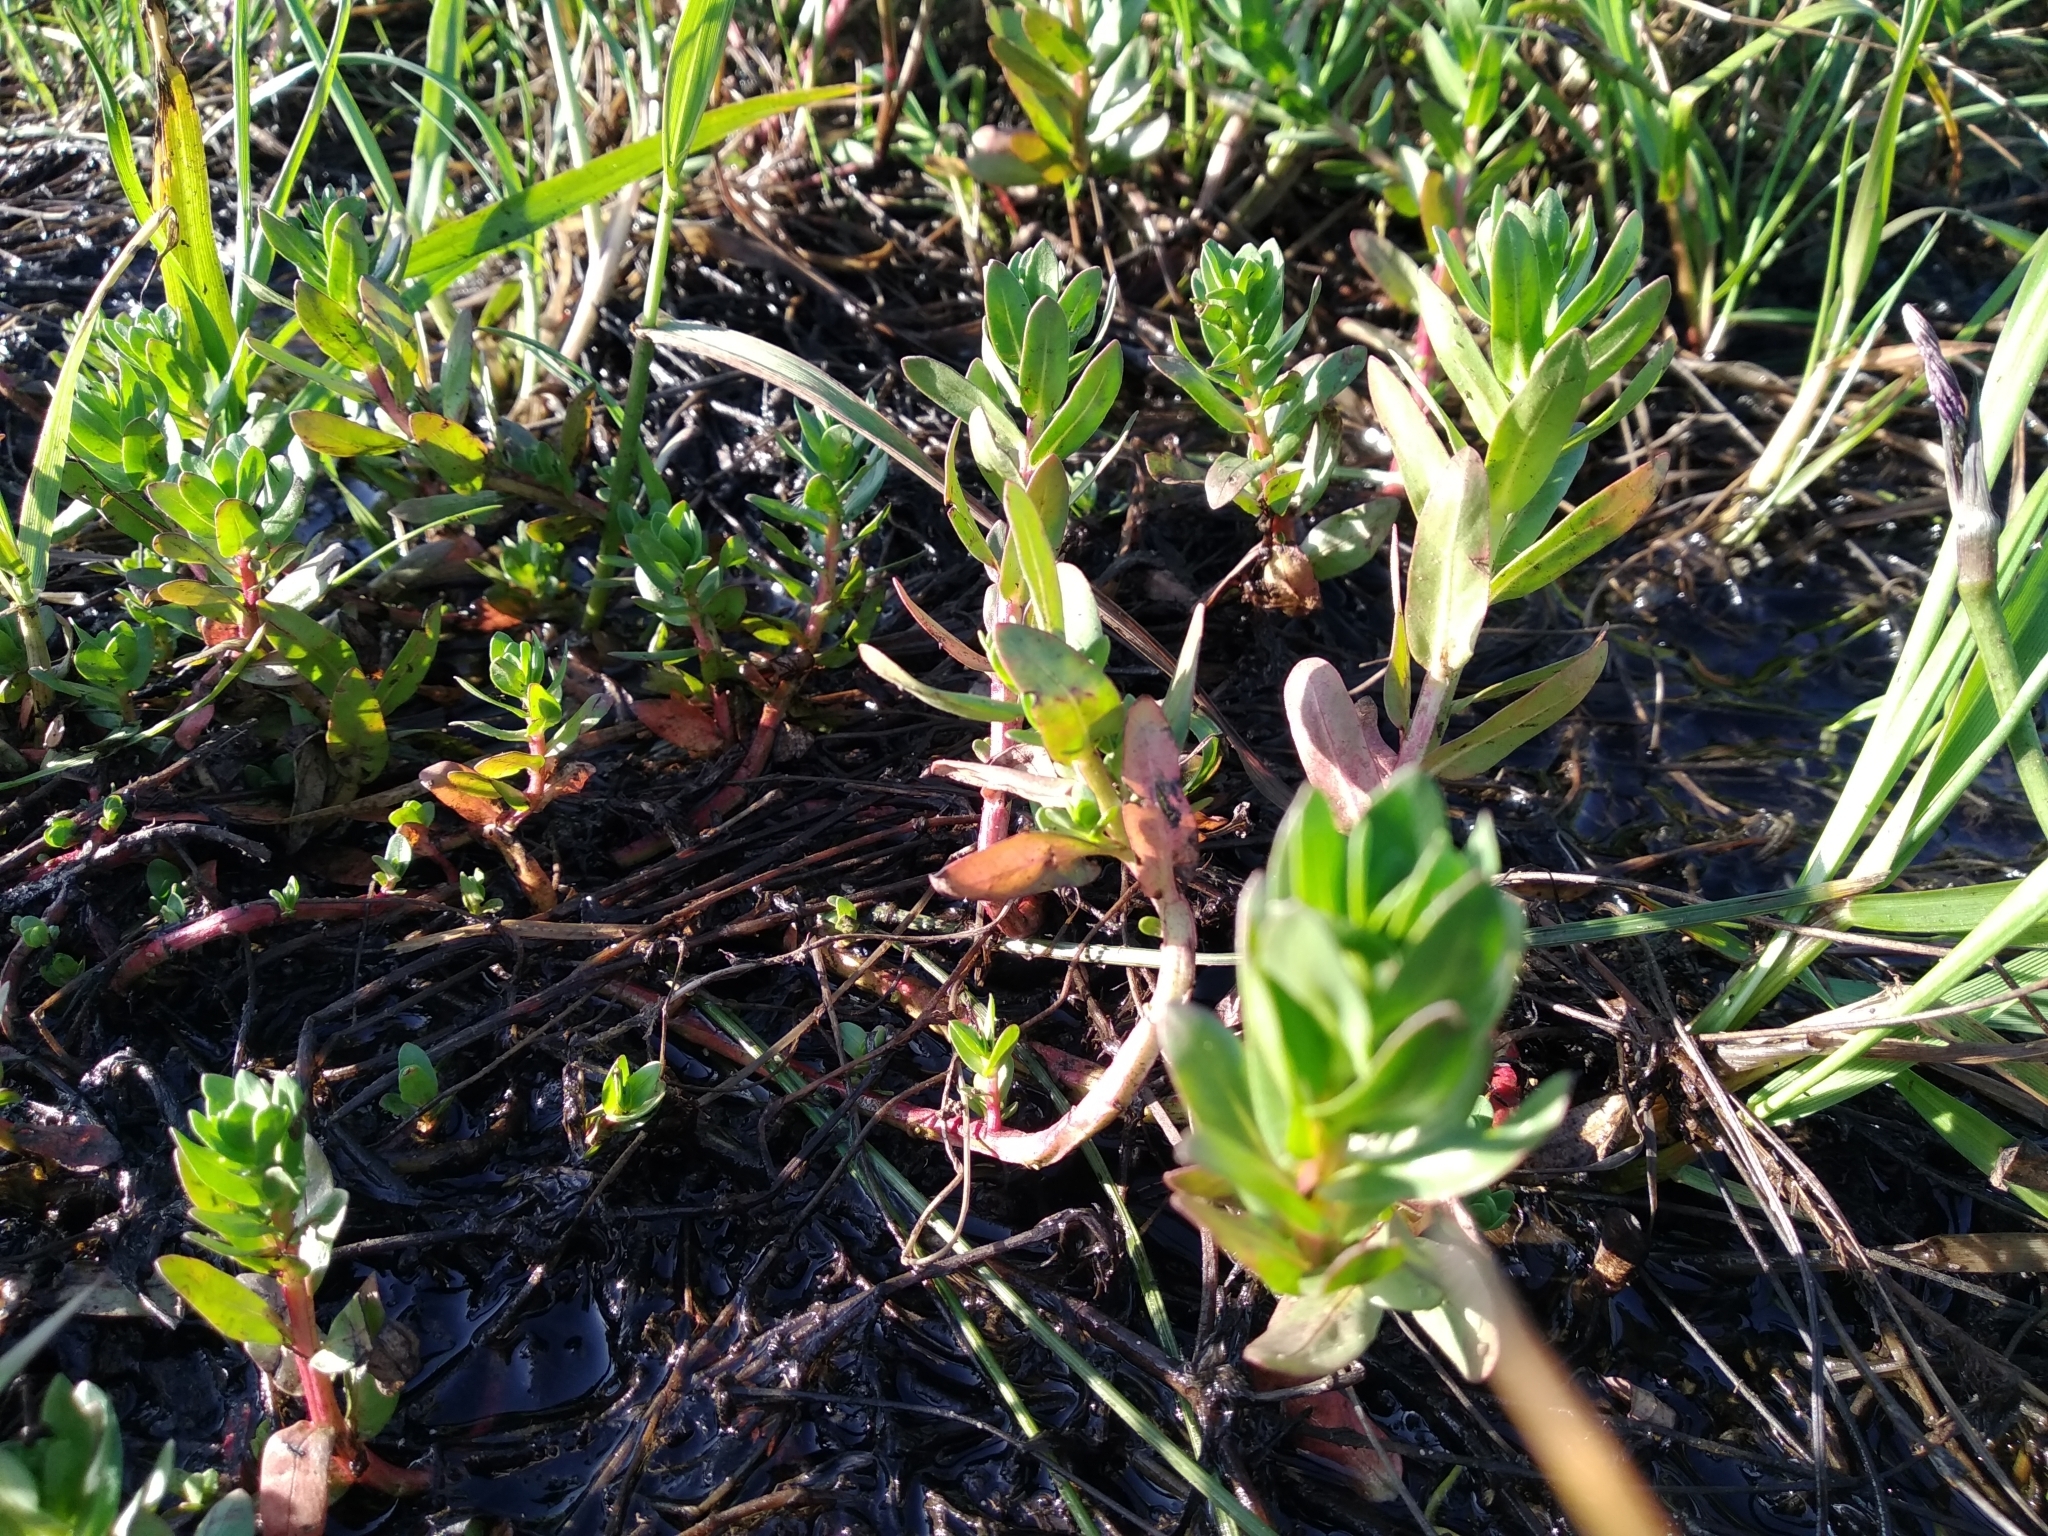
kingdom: Plantae
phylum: Tracheophyta
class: Magnoliopsida
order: Myrtales
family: Lythraceae
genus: Lythrum
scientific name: Lythrum hyssopifolia
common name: Grass-poly
